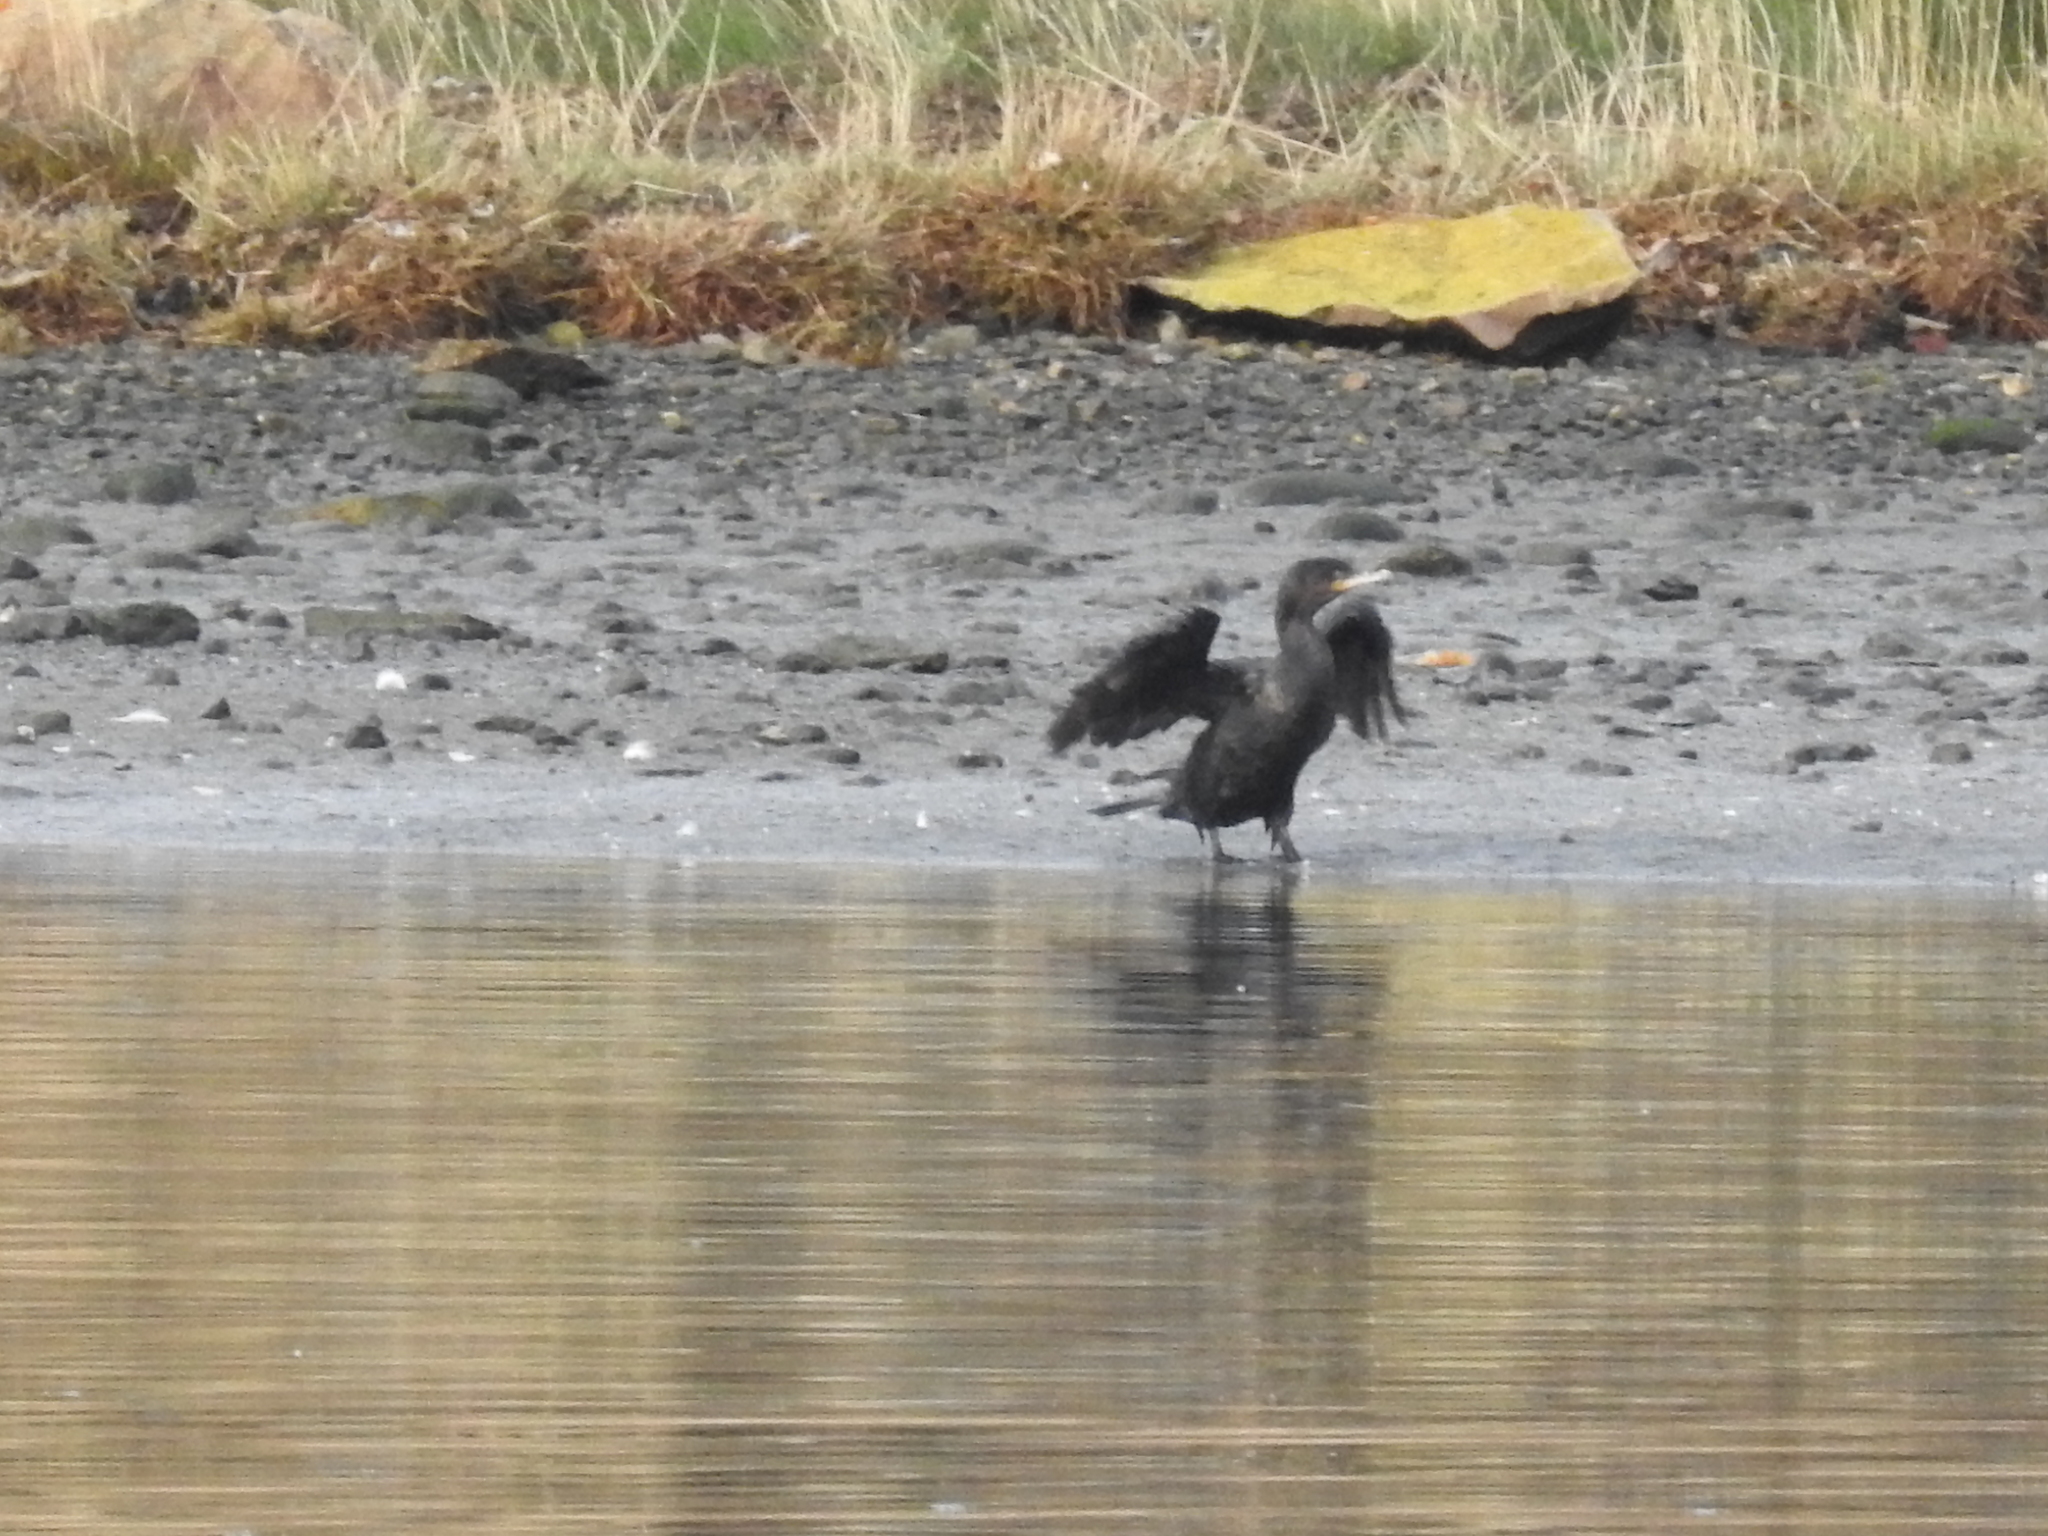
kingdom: Animalia
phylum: Chordata
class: Aves
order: Suliformes
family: Phalacrocoracidae
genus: Phalacrocorax
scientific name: Phalacrocorax brasilianus
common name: Neotropic cormorant
